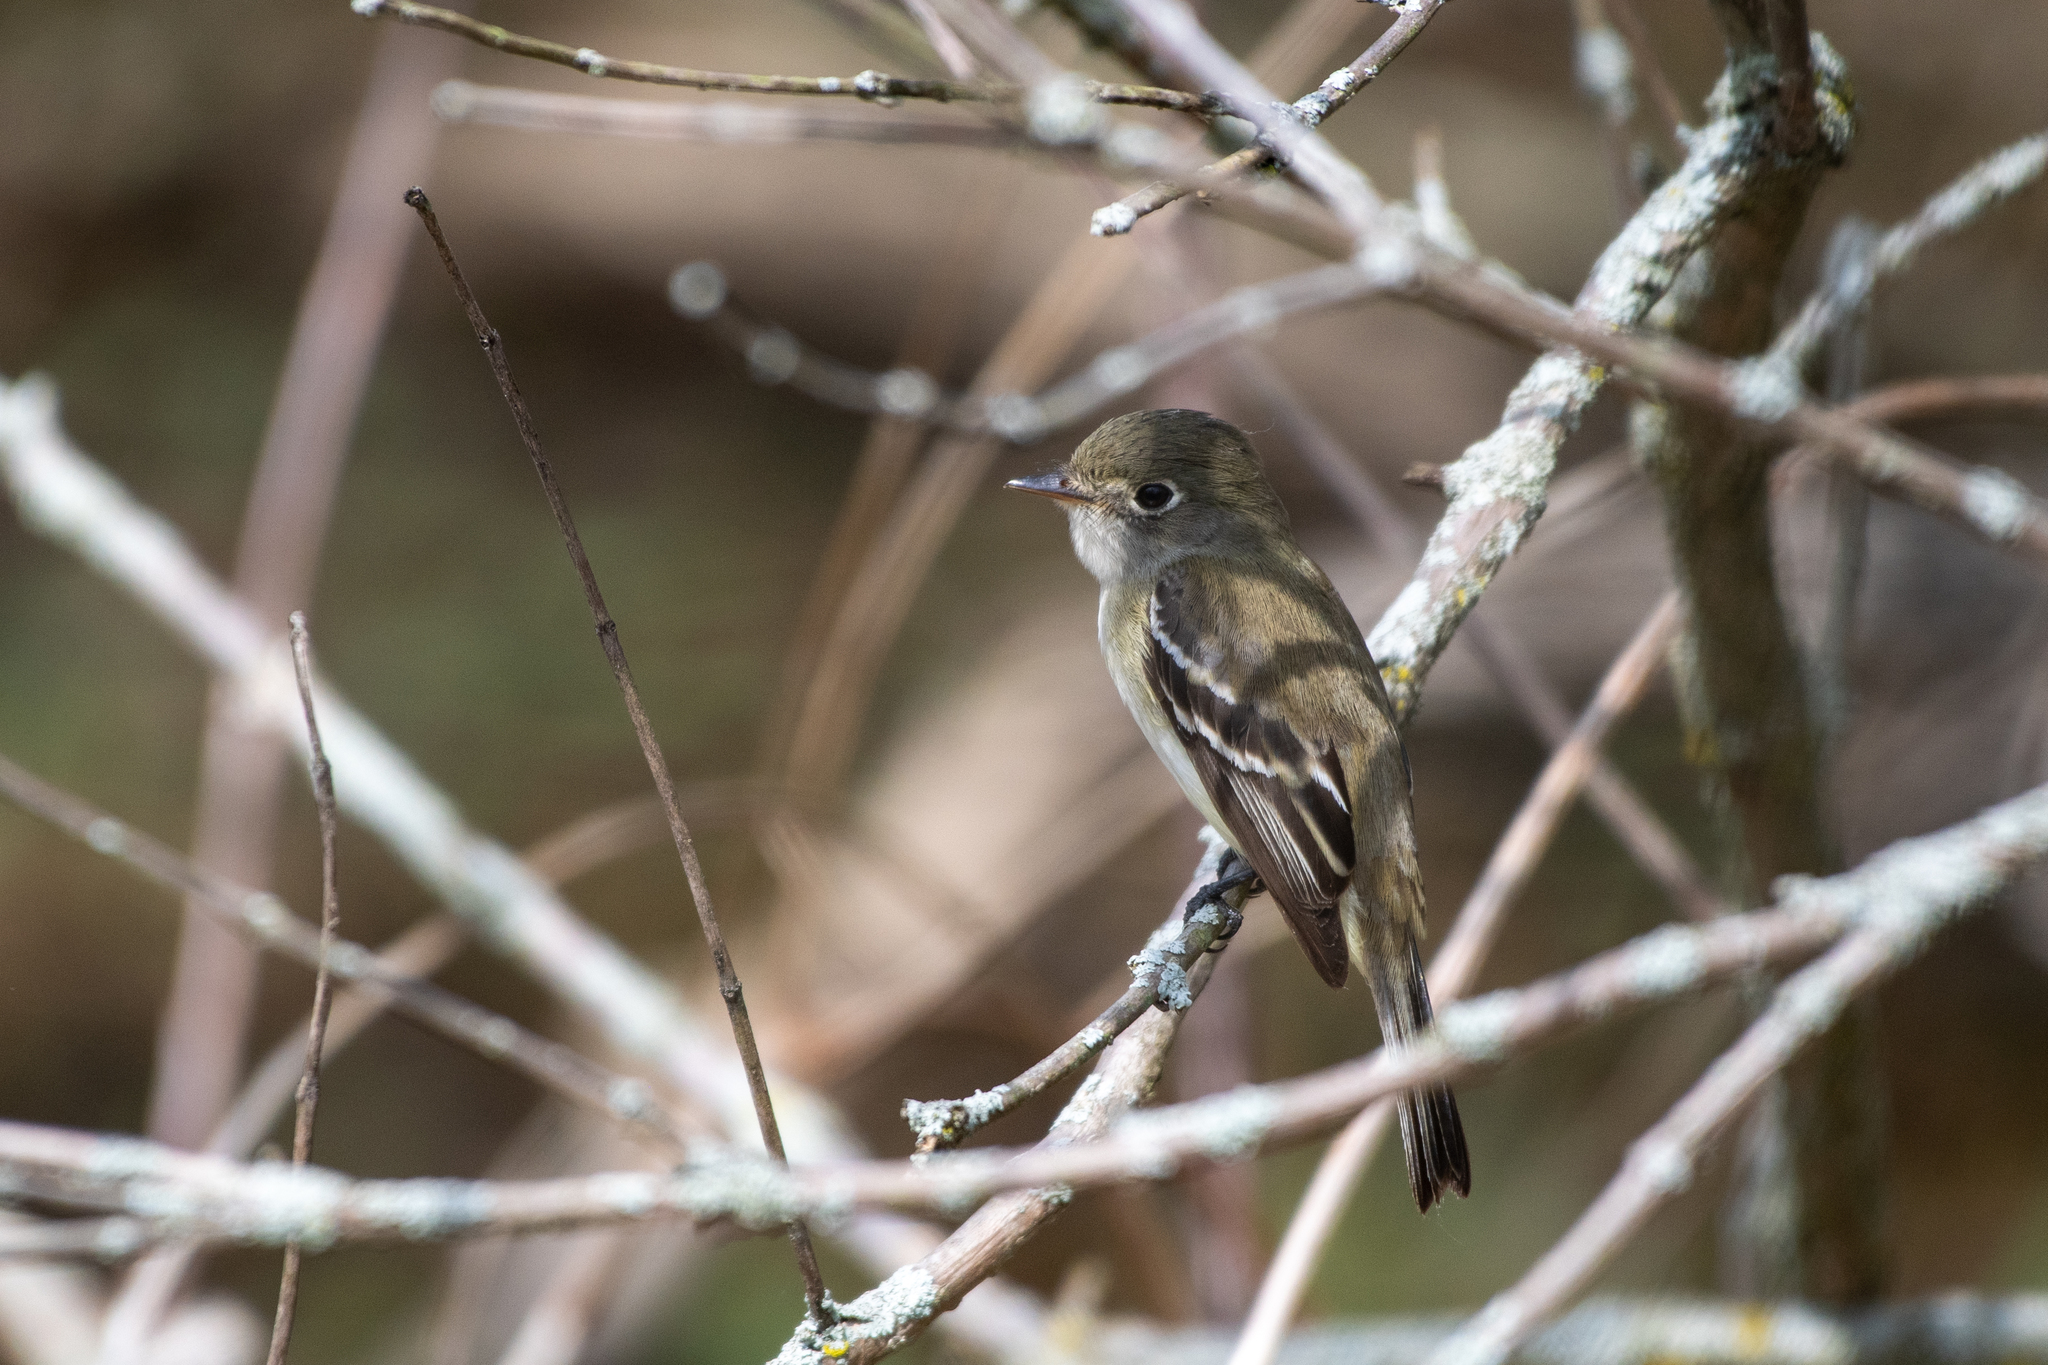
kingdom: Animalia
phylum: Chordata
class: Aves
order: Passeriformes
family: Tyrannidae
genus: Empidonax
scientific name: Empidonax minimus
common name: Least flycatcher
